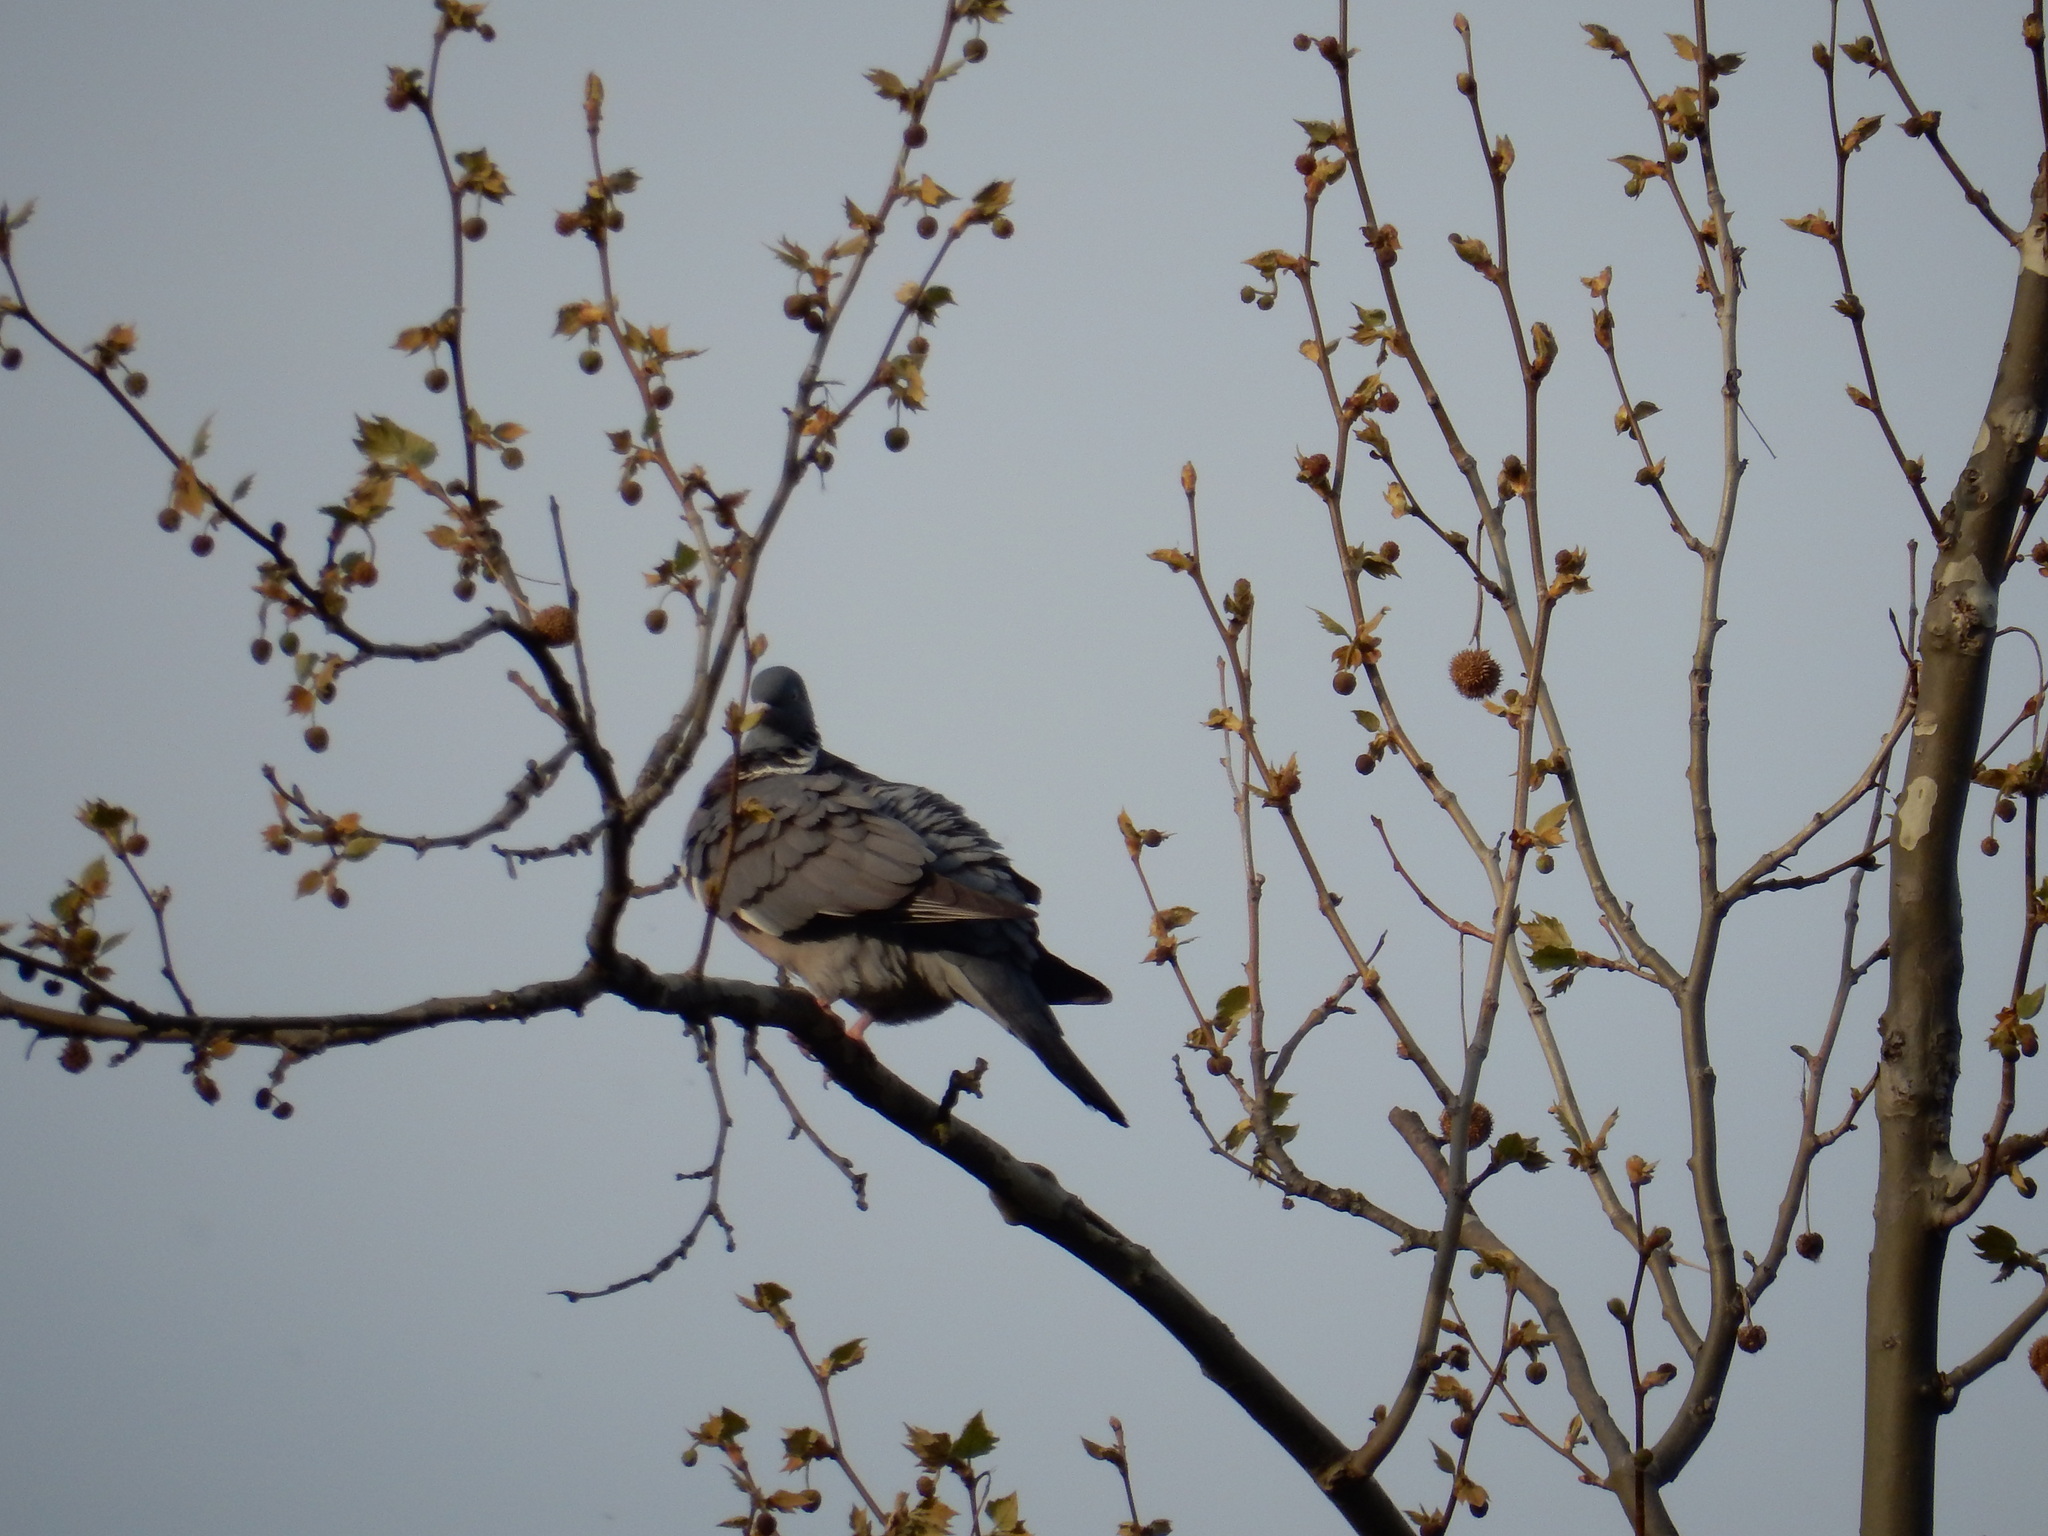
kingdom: Animalia
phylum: Chordata
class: Aves
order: Columbiformes
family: Columbidae
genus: Columba
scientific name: Columba palumbus
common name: Common wood pigeon
